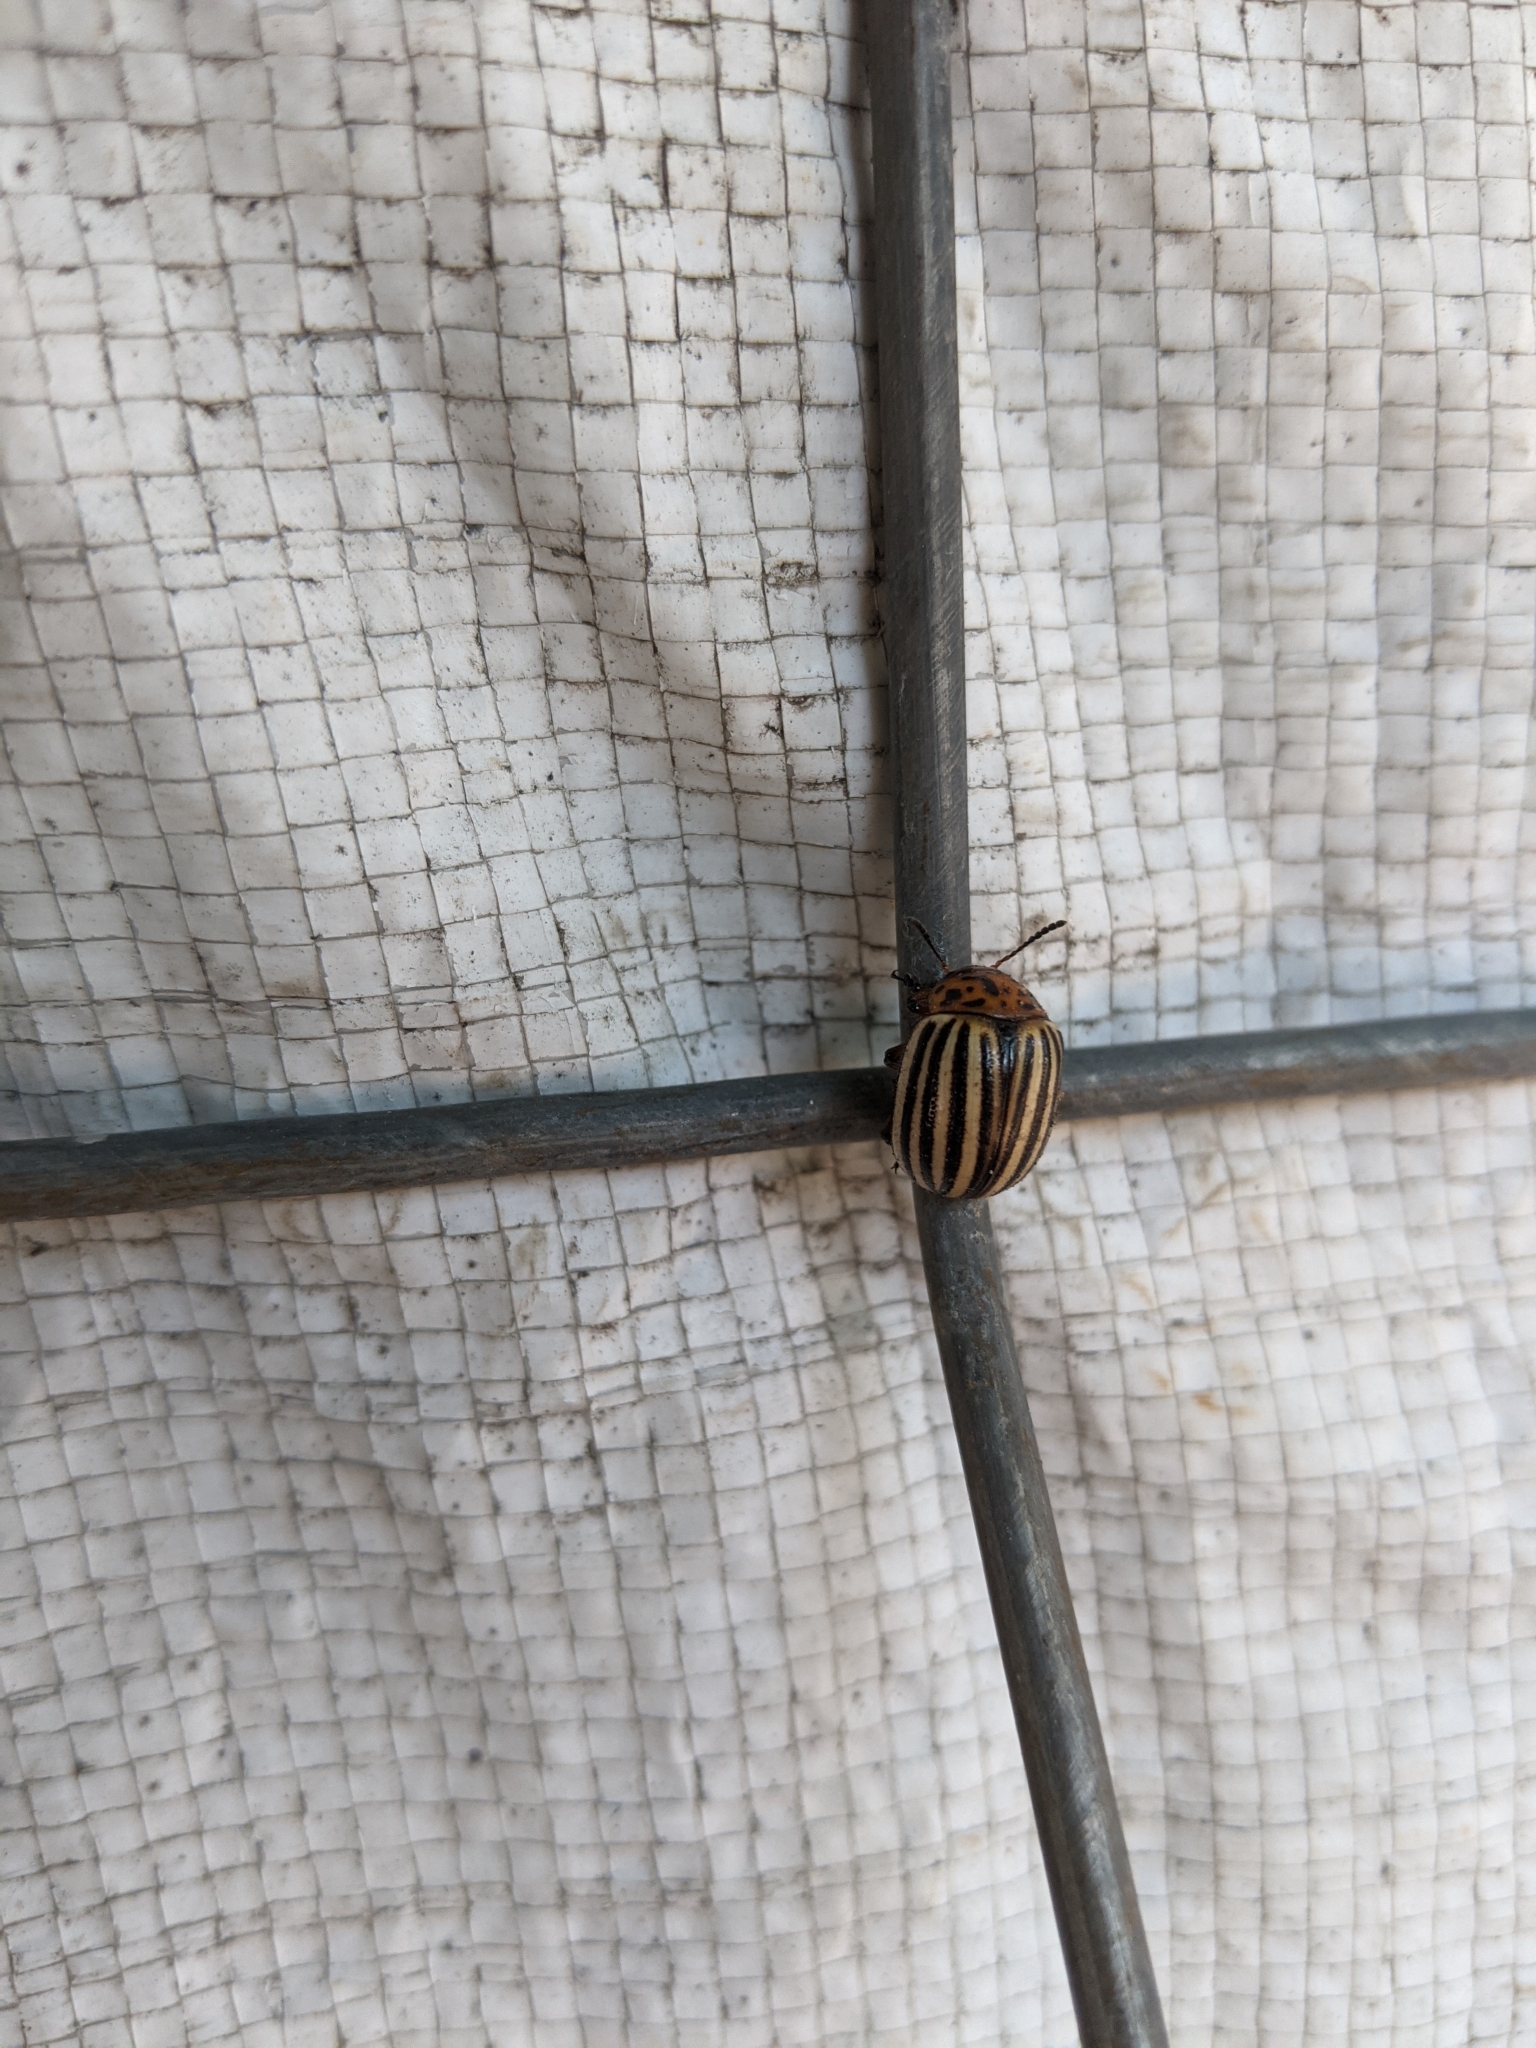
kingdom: Animalia
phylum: Arthropoda
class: Insecta
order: Coleoptera
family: Chrysomelidae
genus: Leptinotarsa
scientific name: Leptinotarsa decemlineata
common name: Colorado potato beetle
